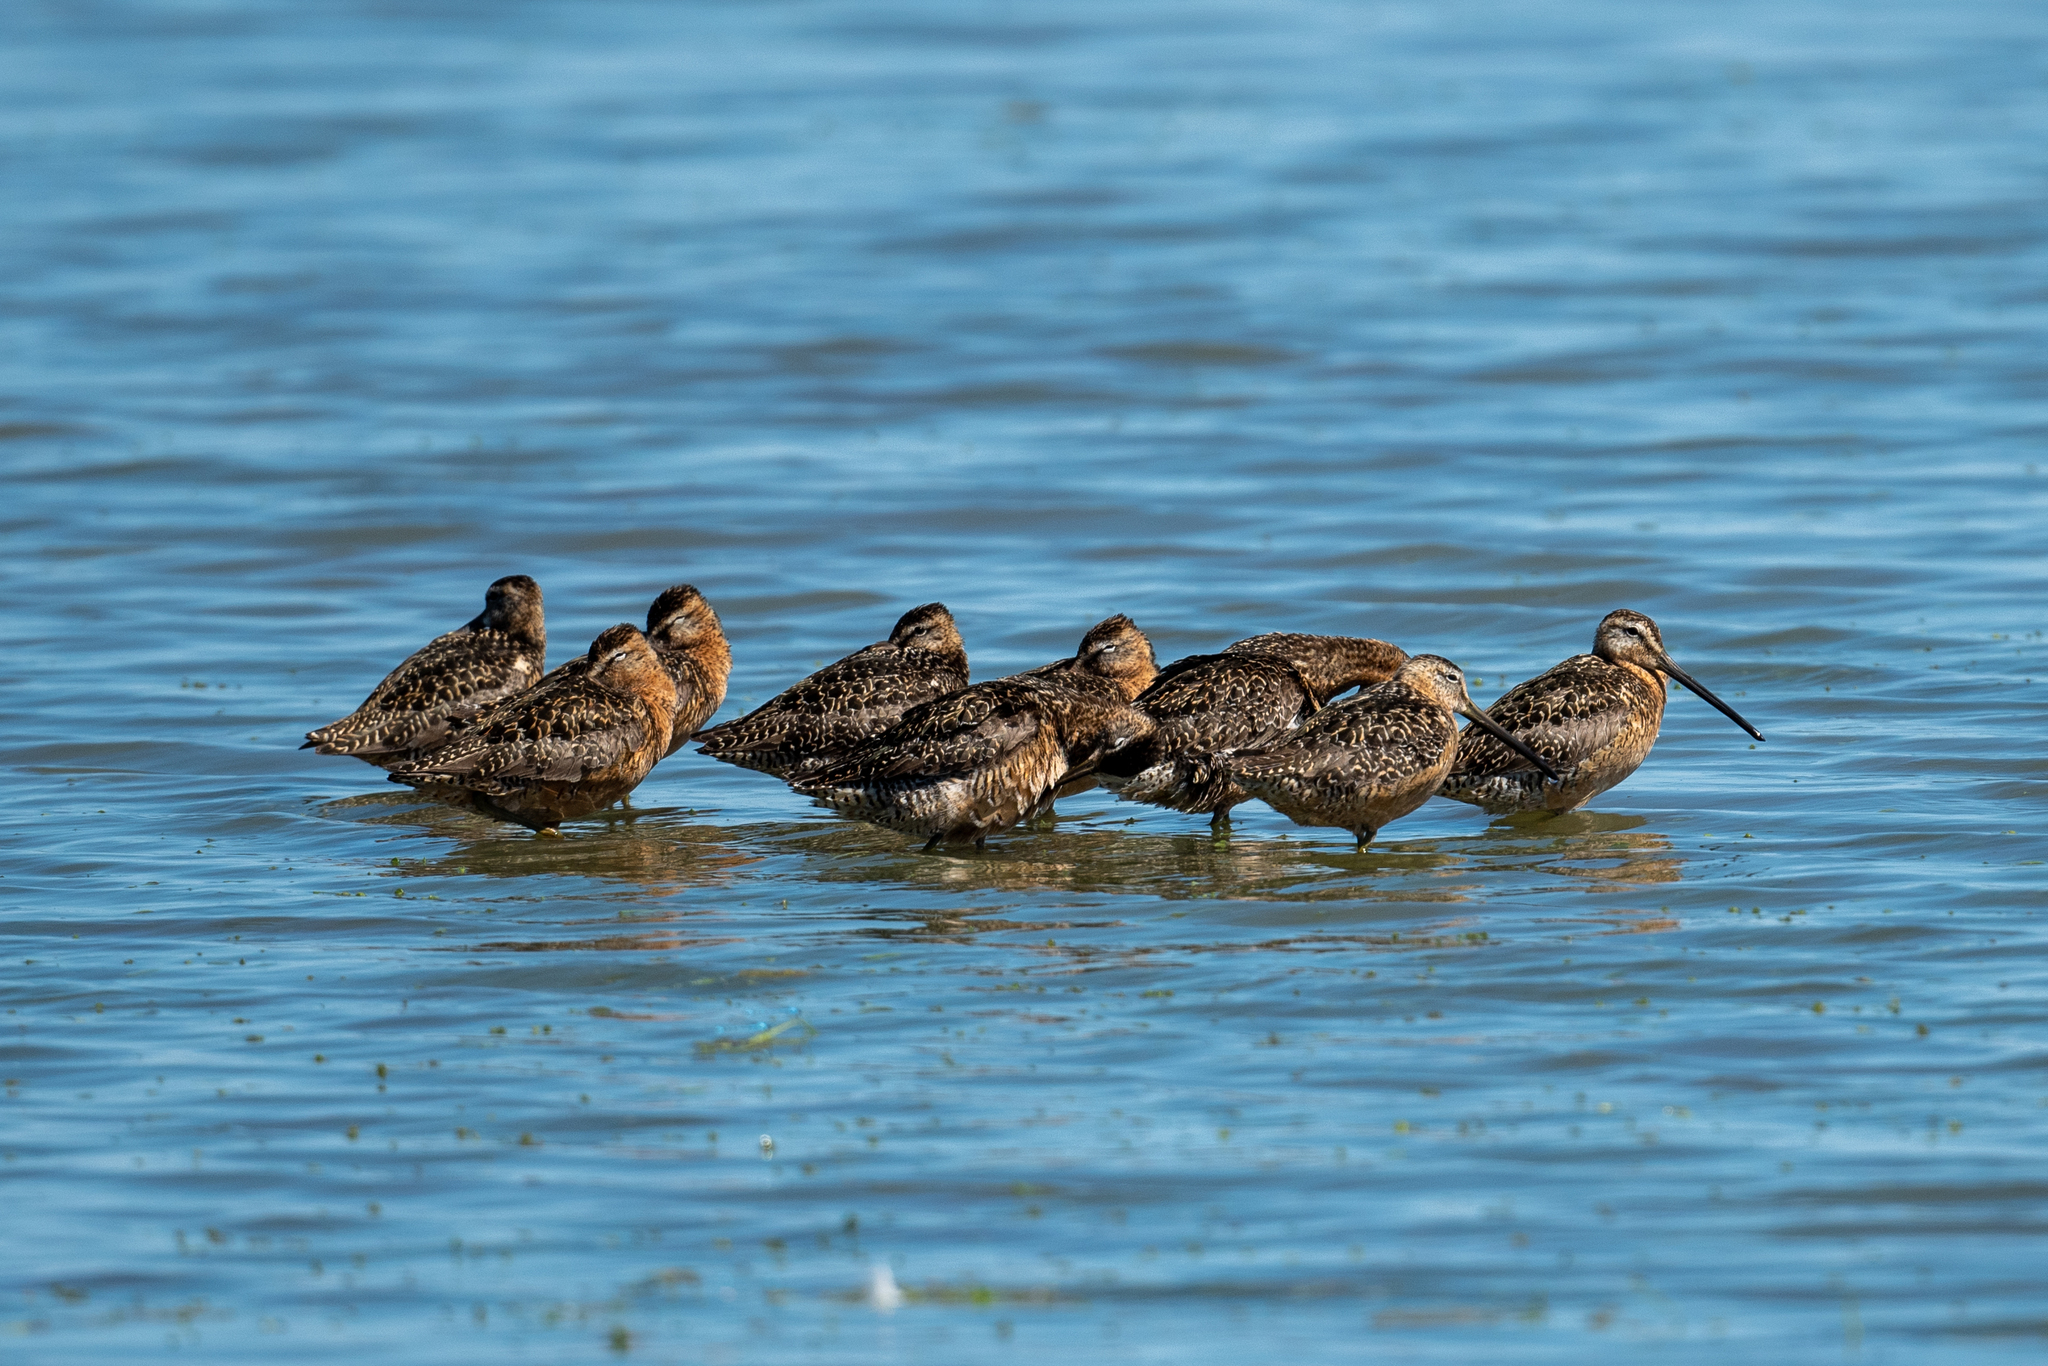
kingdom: Animalia
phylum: Chordata
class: Aves
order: Charadriiformes
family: Scolopacidae
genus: Limnodromus
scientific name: Limnodromus scolopaceus
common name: Long-billed dowitcher
